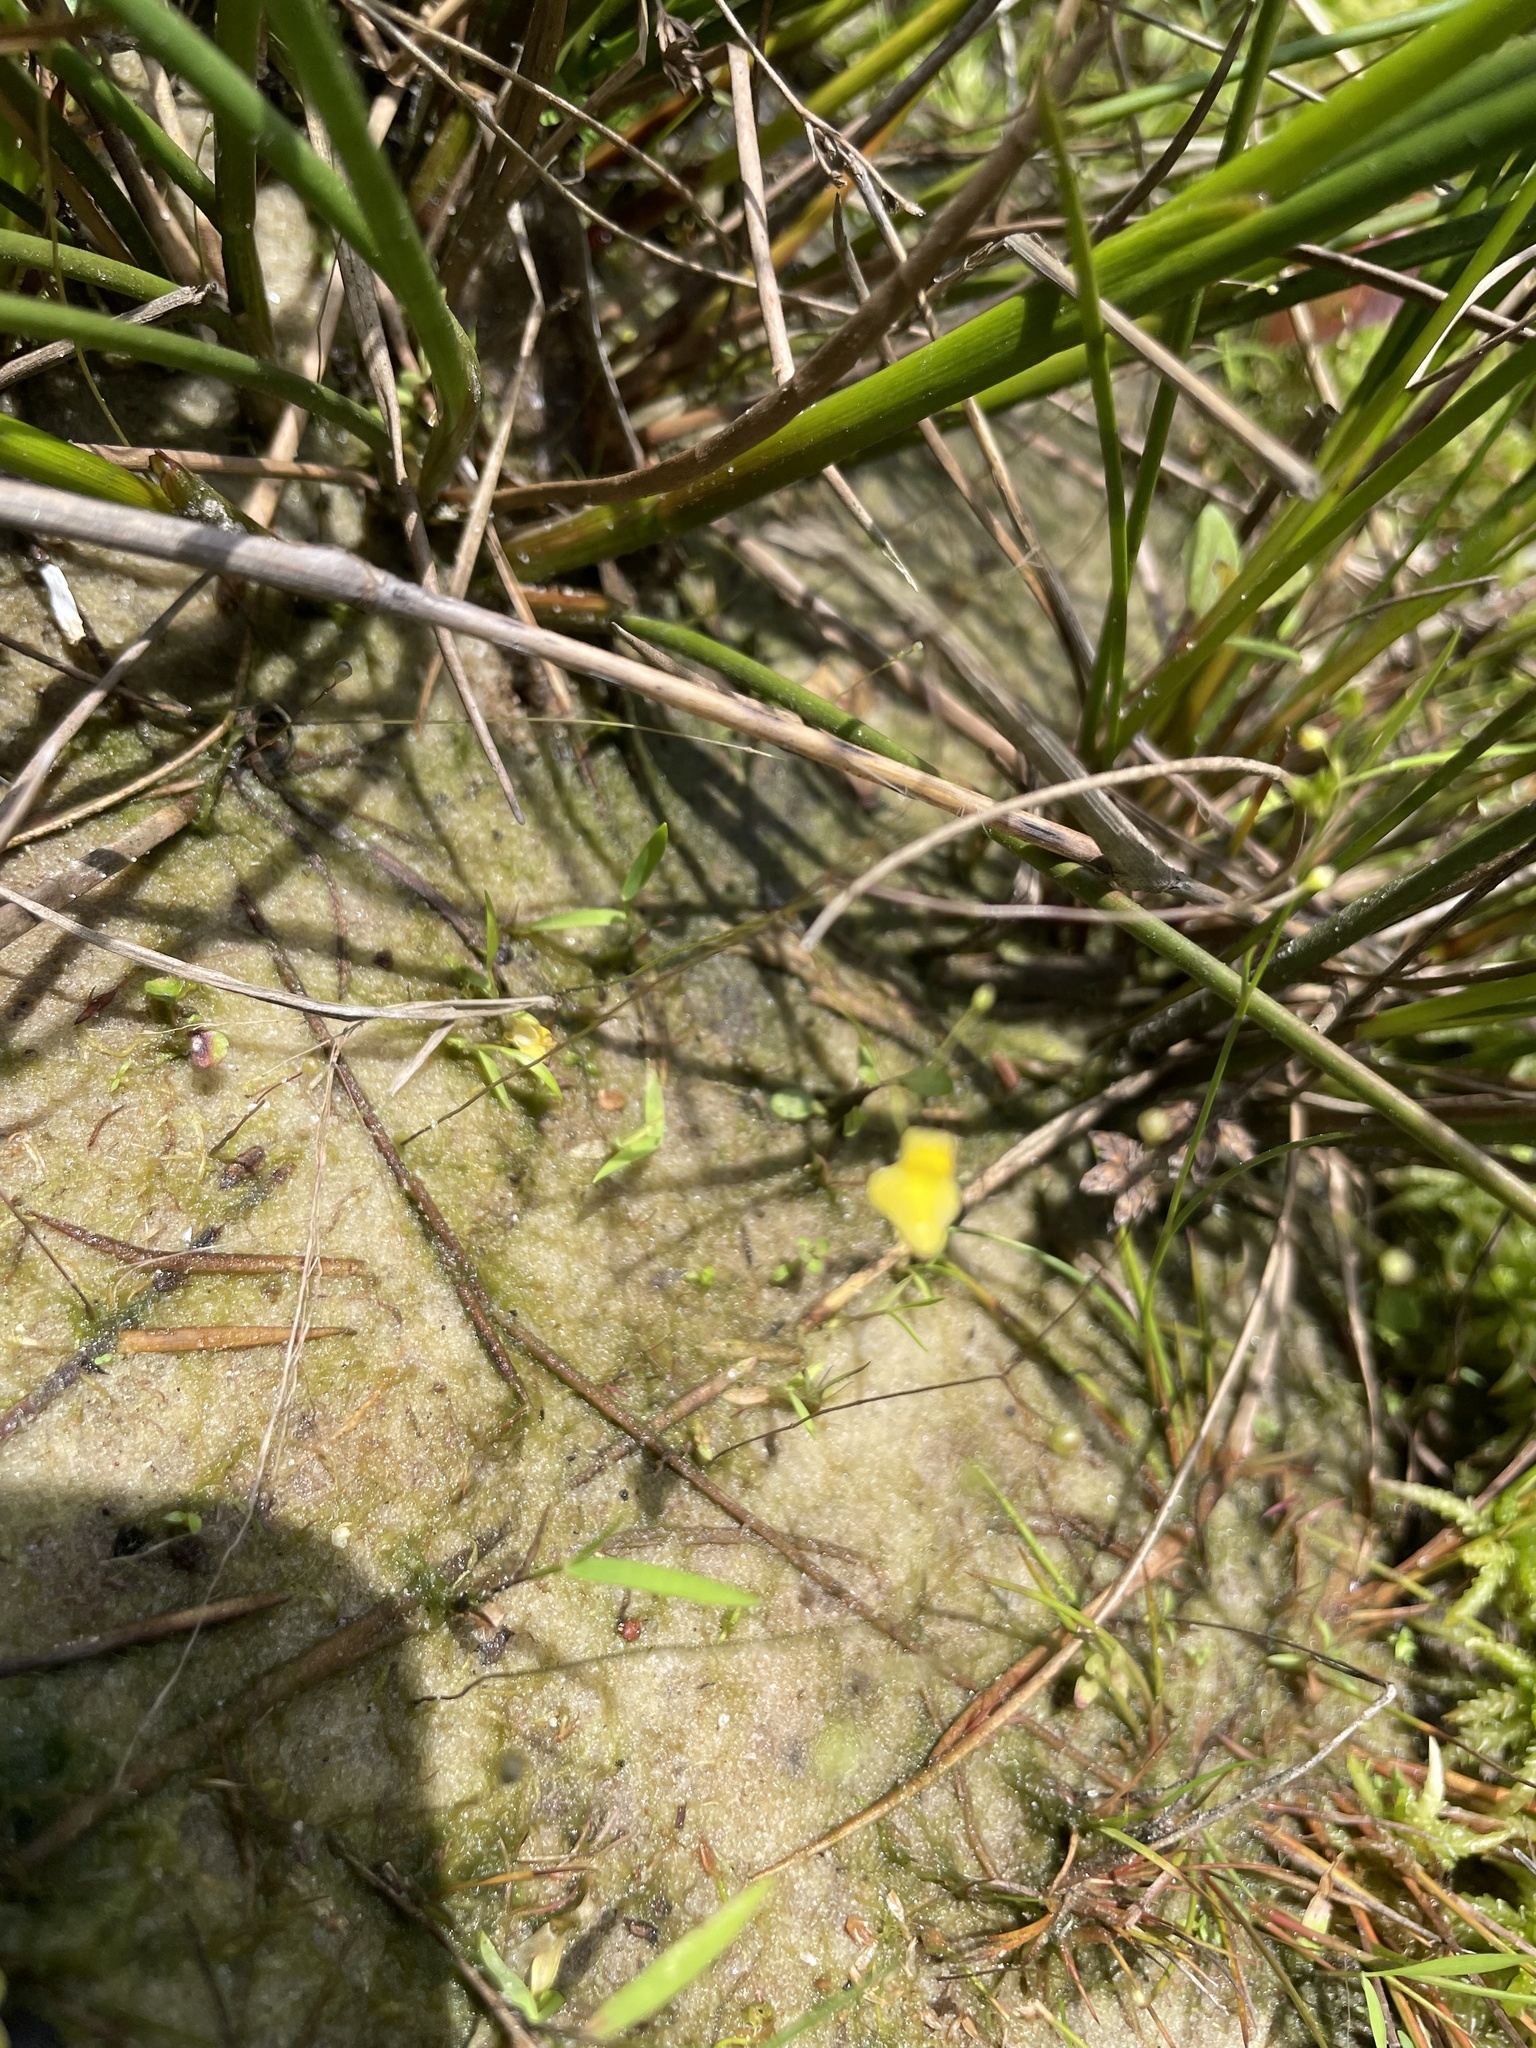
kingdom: Plantae
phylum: Tracheophyta
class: Magnoliopsida
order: Lamiales
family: Lentibulariaceae
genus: Utricularia
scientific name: Utricularia subulata
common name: Tiny bladderwort
